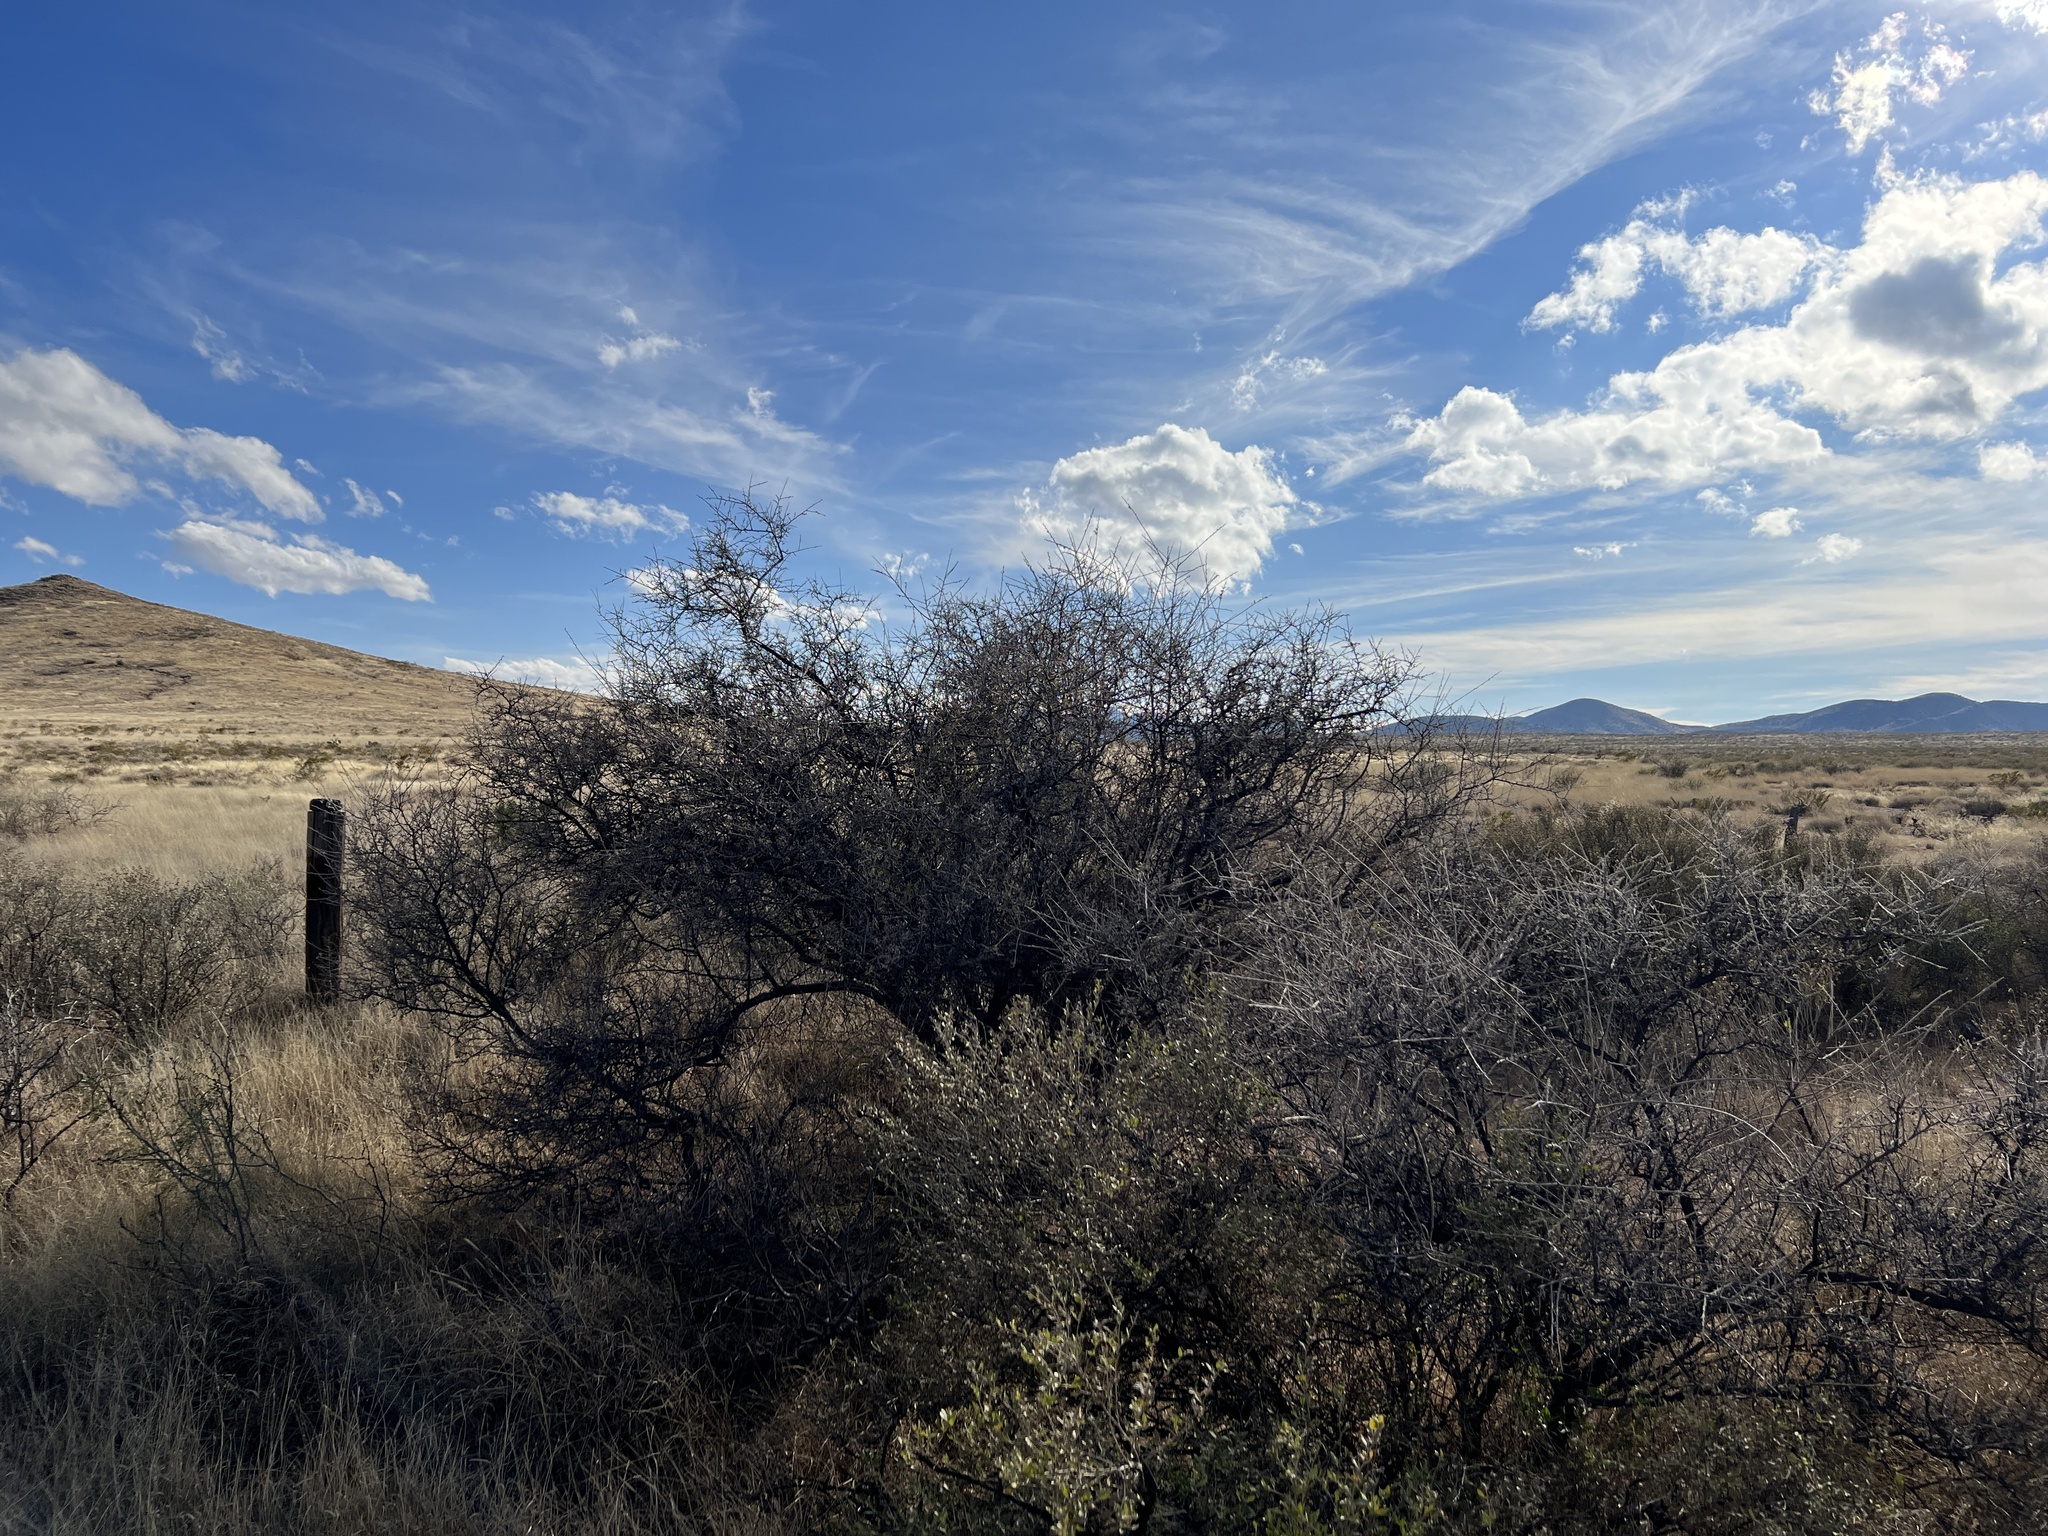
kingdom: Plantae
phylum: Tracheophyta
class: Magnoliopsida
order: Sapindales
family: Anacardiaceae
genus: Rhus
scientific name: Rhus microphylla
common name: Desert sumac
